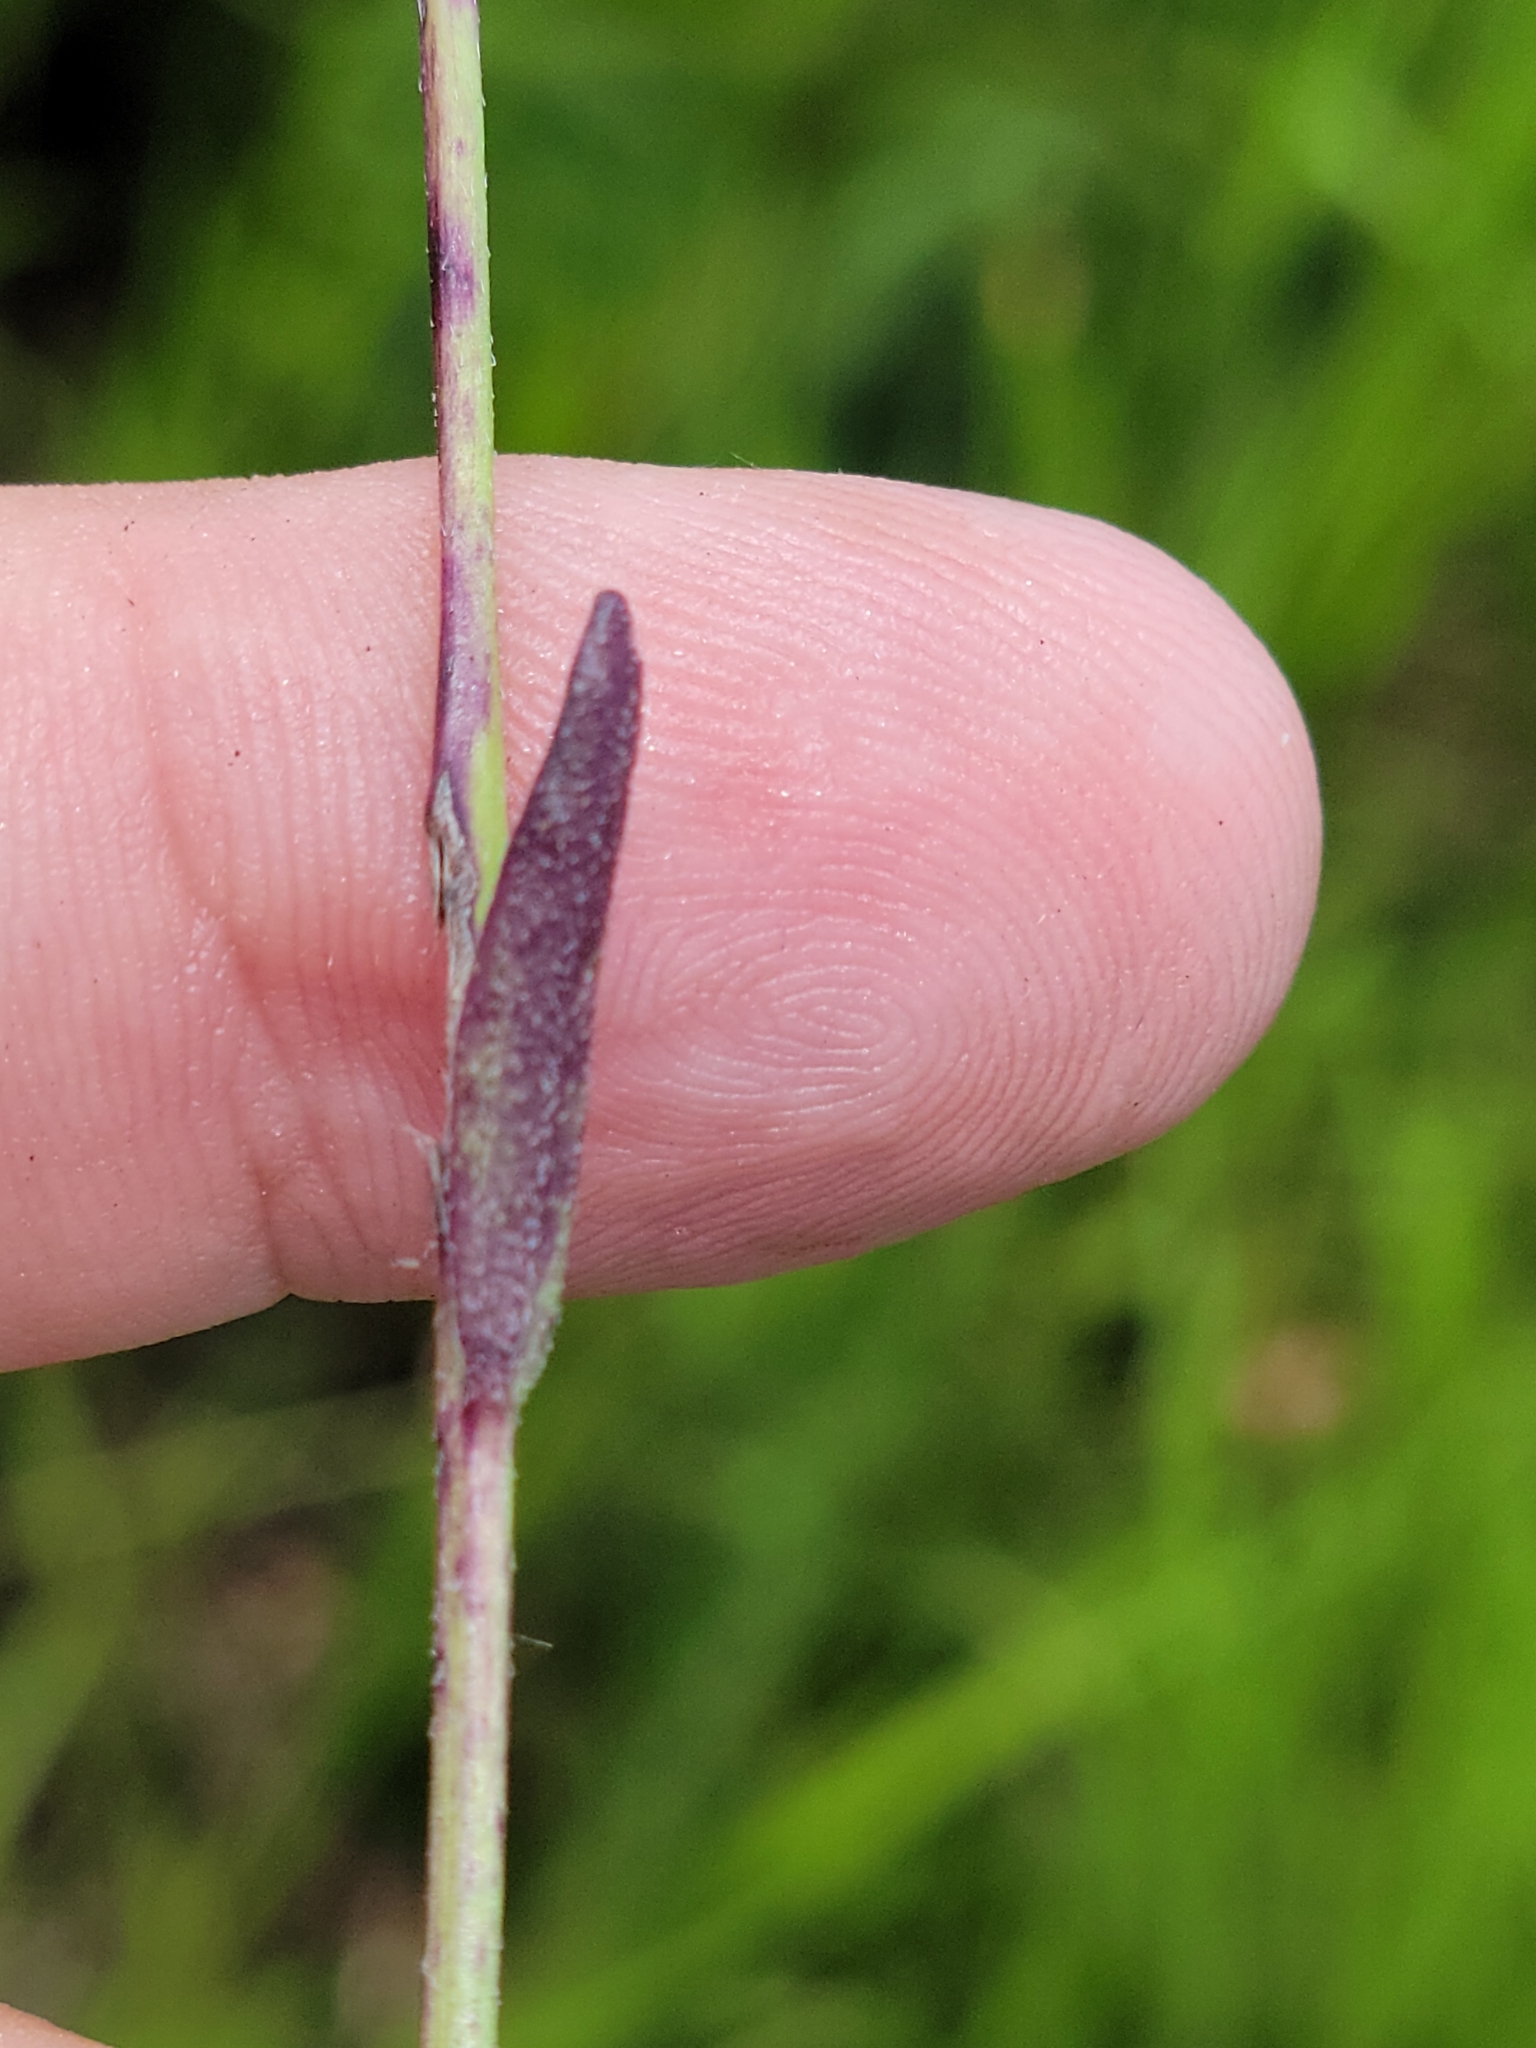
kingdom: Plantae
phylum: Tracheophyta
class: Magnoliopsida
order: Lamiales
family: Orobanchaceae
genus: Buchnera
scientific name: Buchnera floridana
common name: Florida bluehearts
